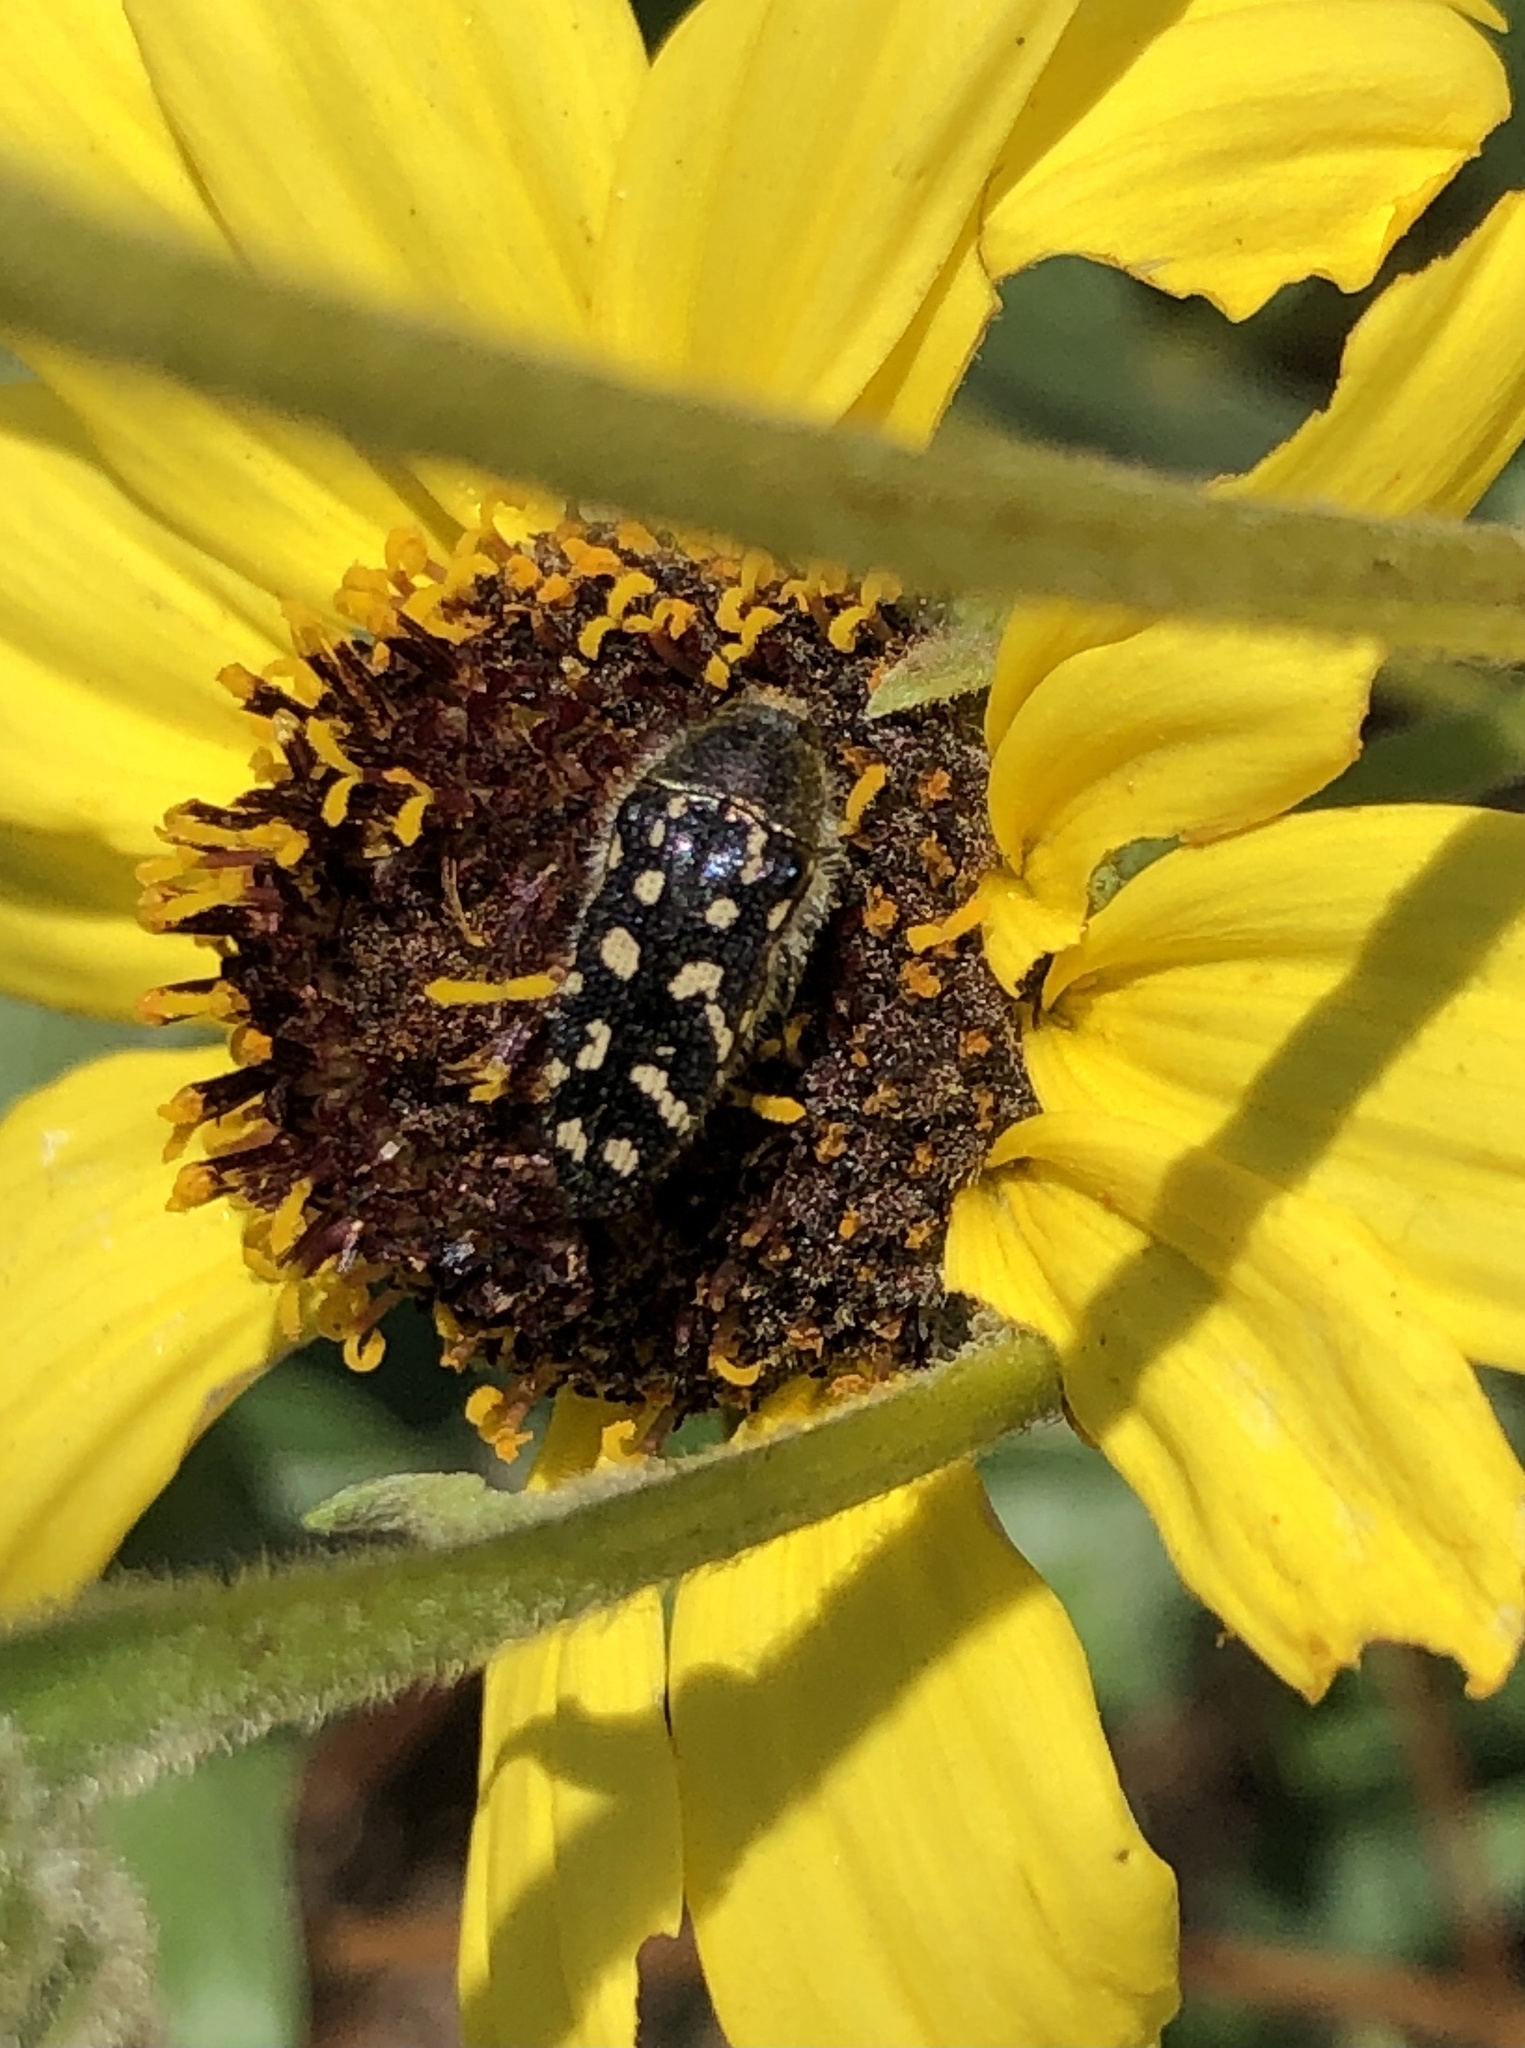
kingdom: Animalia
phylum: Arthropoda
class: Insecta
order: Coleoptera
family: Buprestidae
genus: Acmaeodera
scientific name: Acmaeodera bacchariphaga
